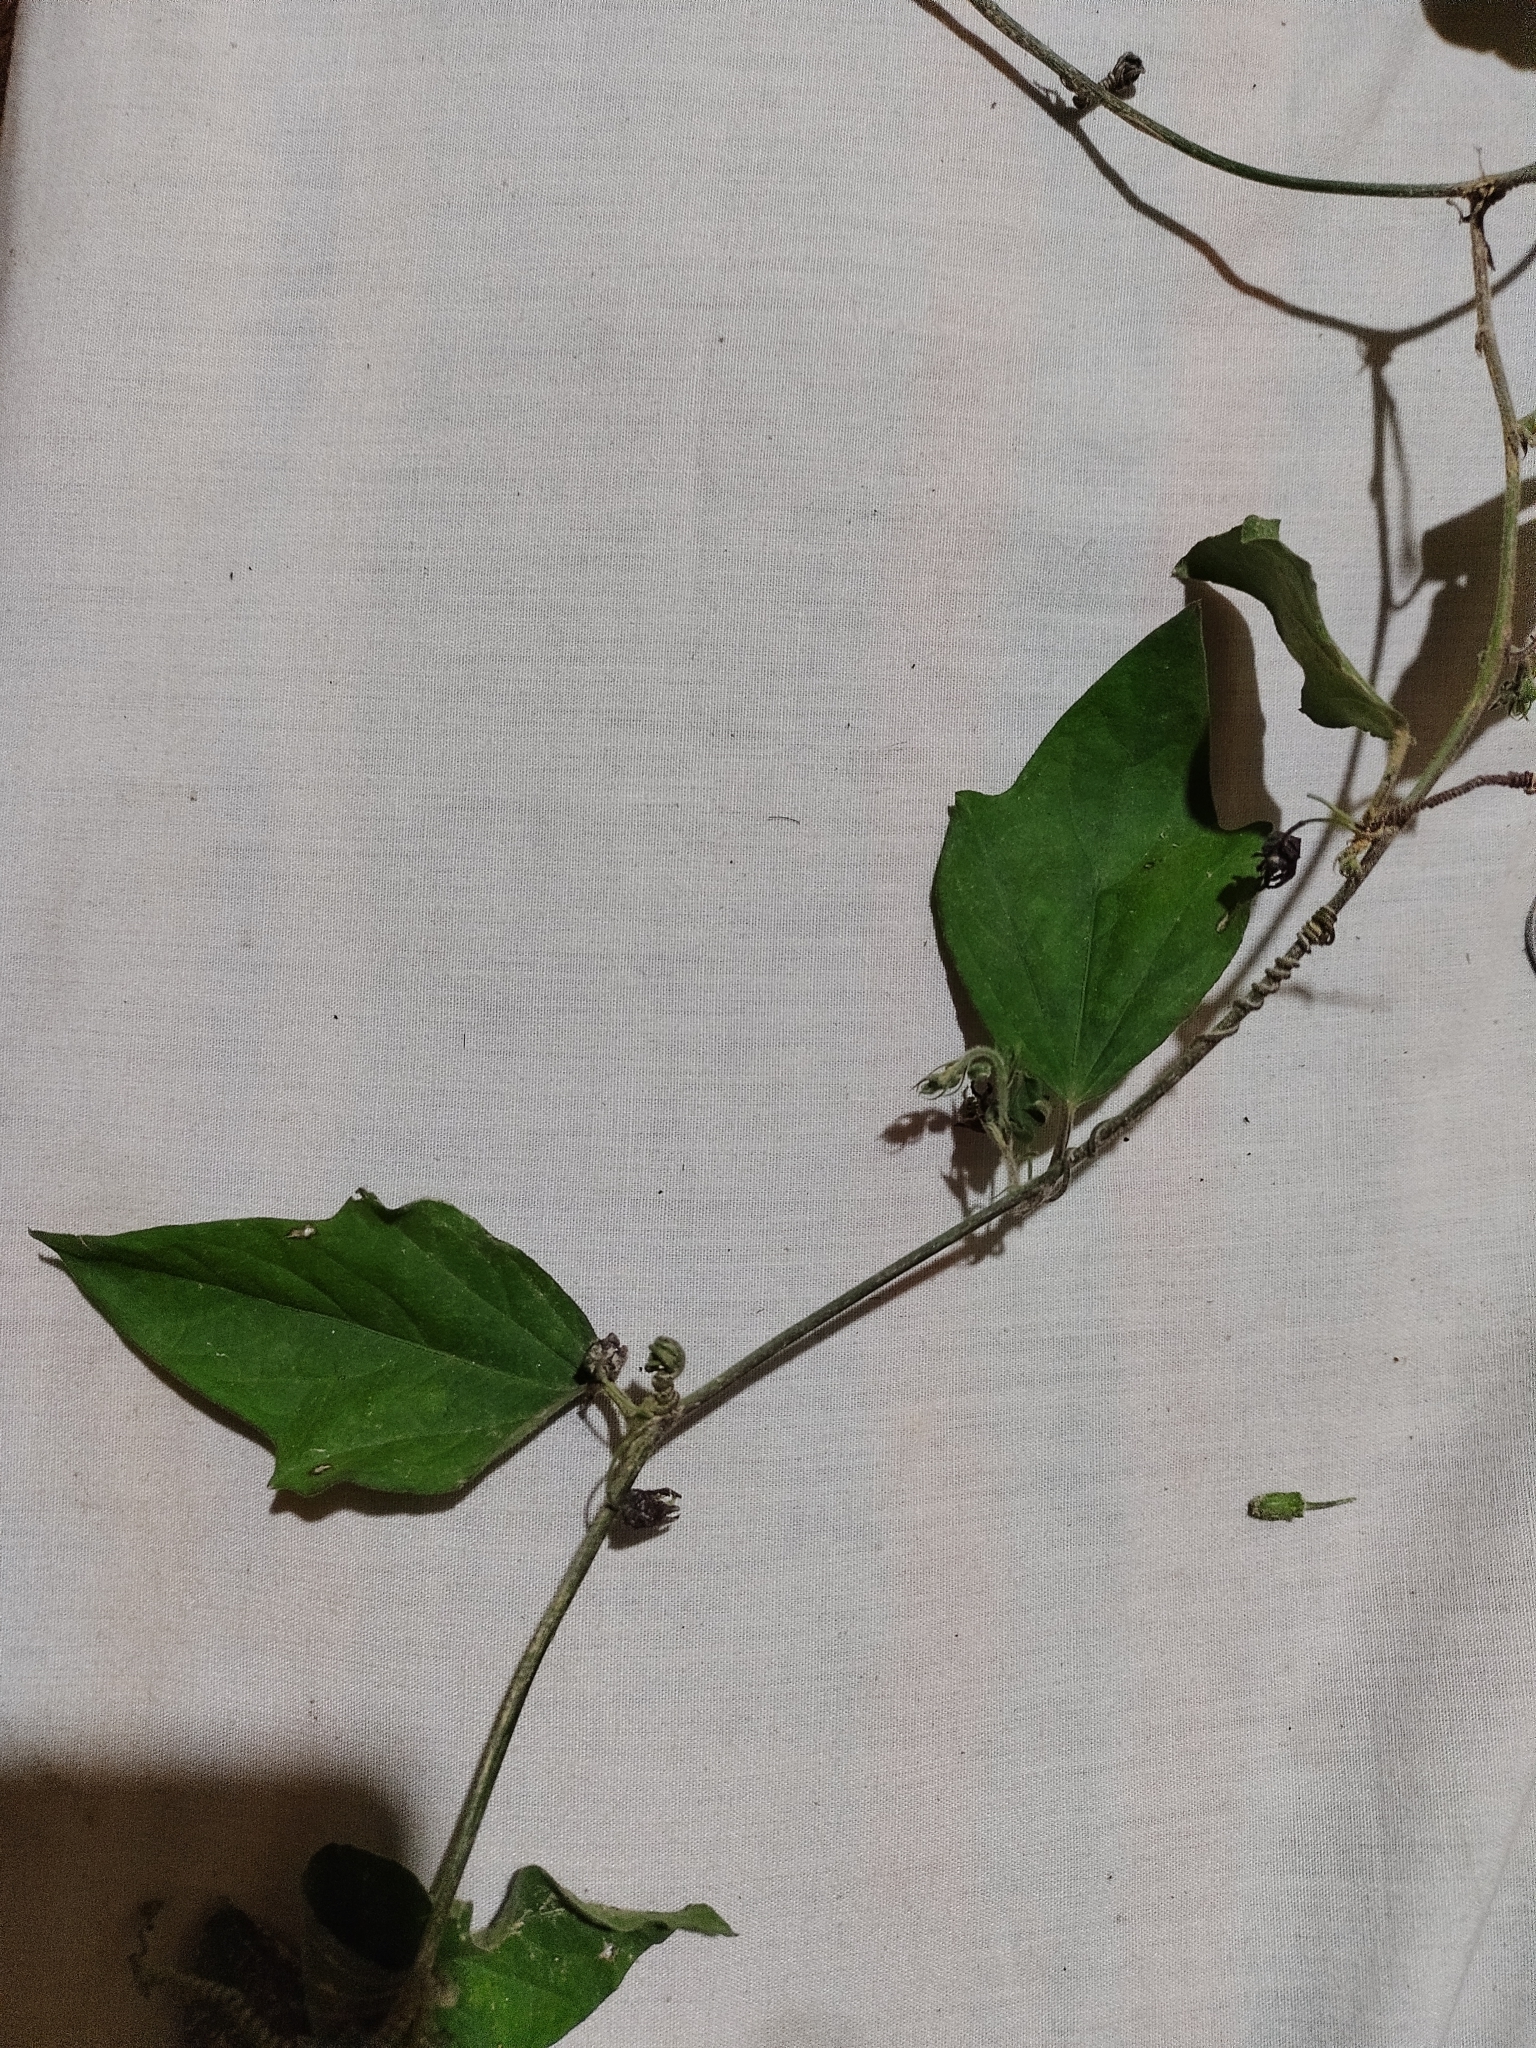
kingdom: Plantae
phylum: Tracheophyta
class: Magnoliopsida
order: Malpighiales
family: Passifloraceae
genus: Passiflora
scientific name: Passiflora suberosa
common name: Wild passionfruit
